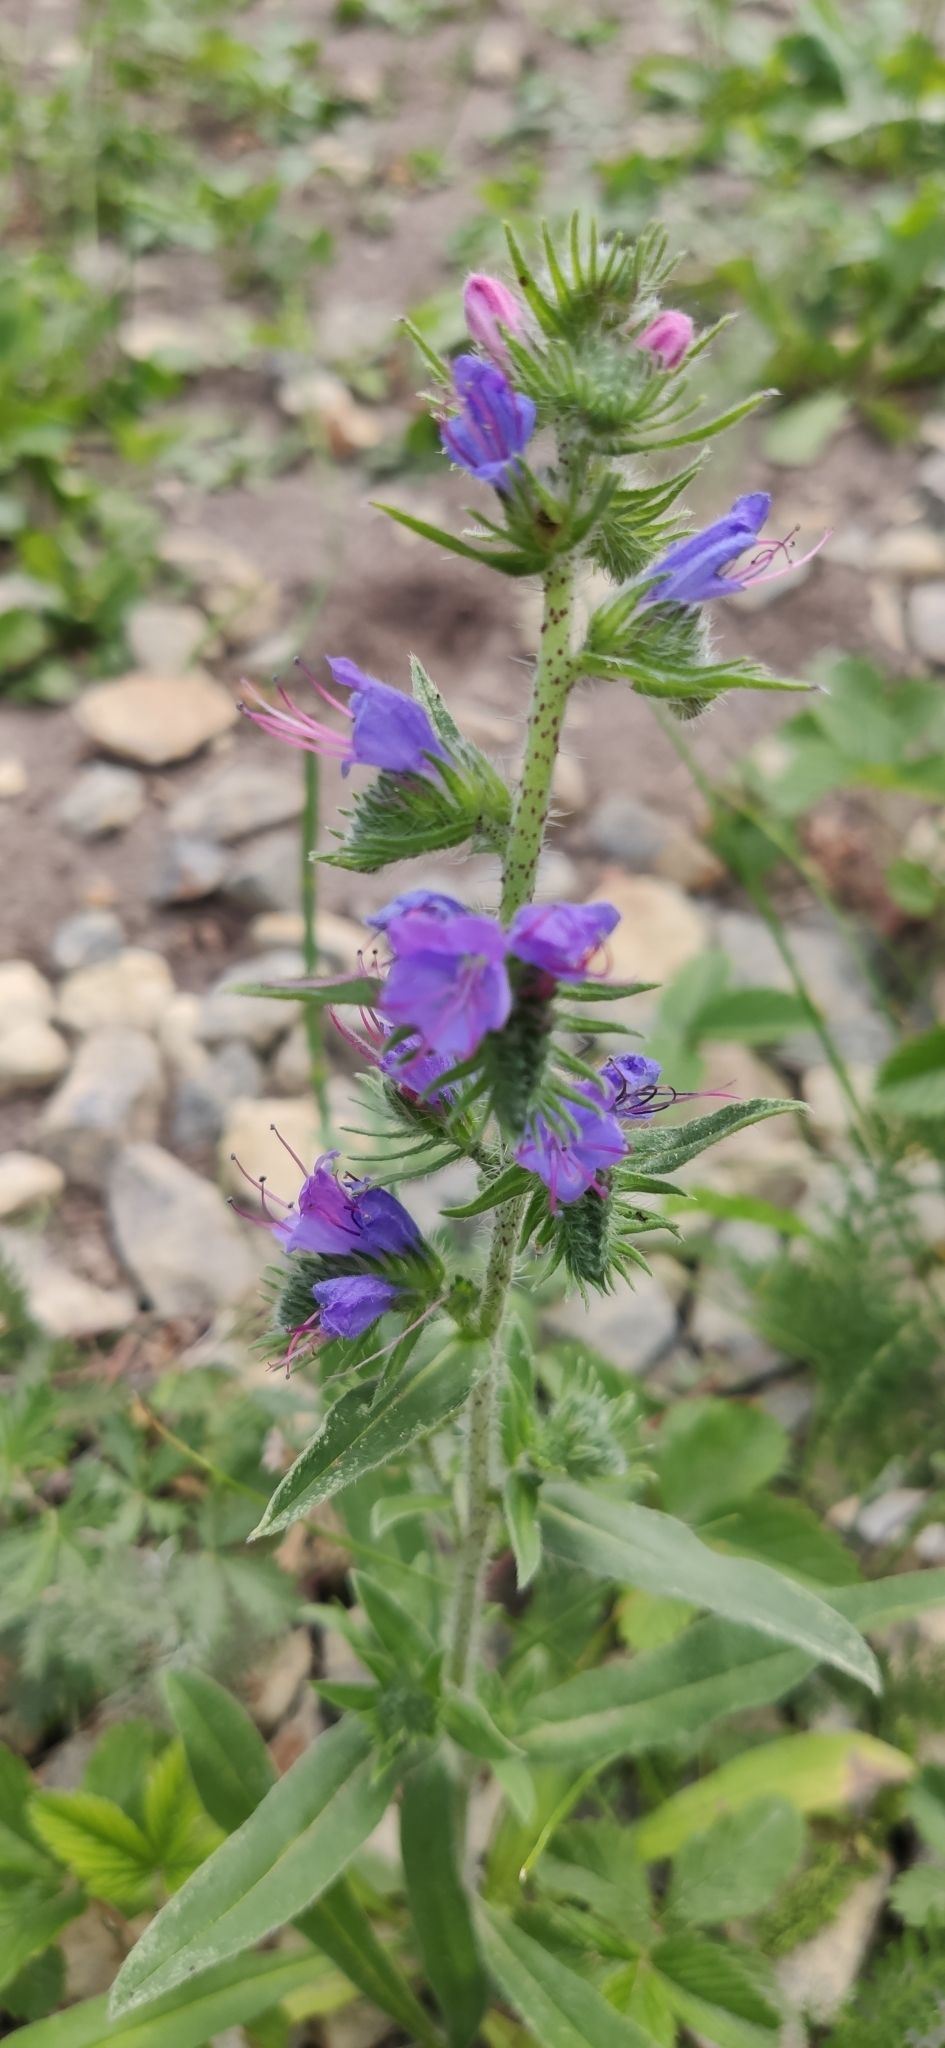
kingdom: Plantae
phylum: Tracheophyta
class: Magnoliopsida
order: Boraginales
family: Boraginaceae
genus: Echium
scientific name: Echium vulgare
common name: Common viper's bugloss
